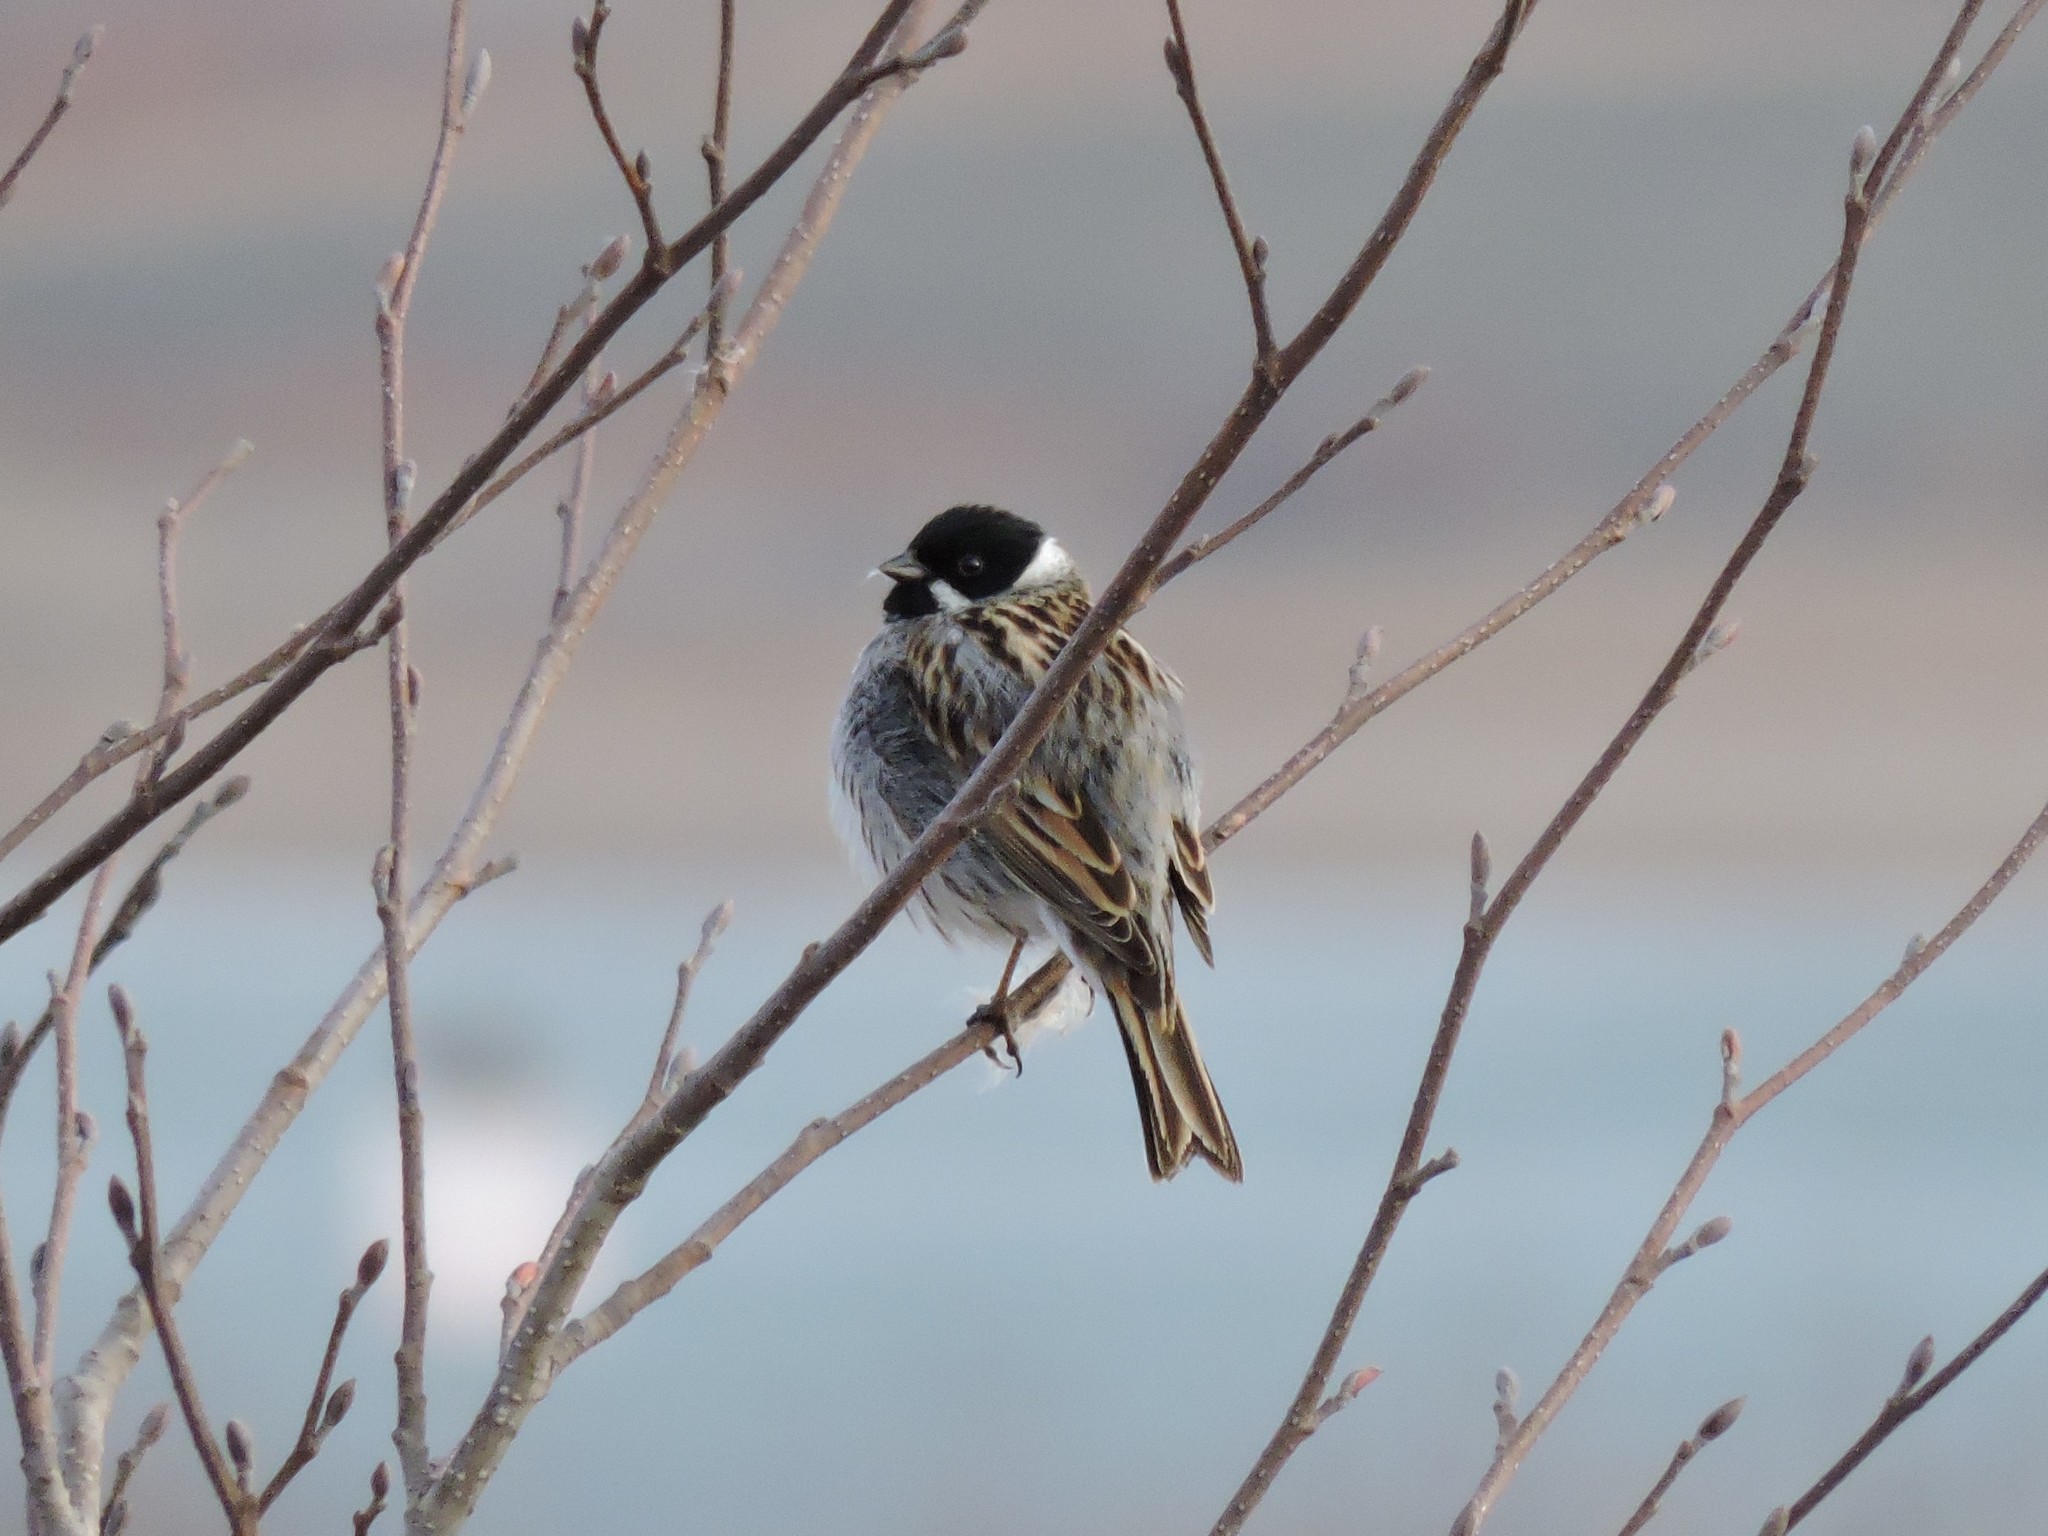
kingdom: Animalia
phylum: Chordata
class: Aves
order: Passeriformes
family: Emberizidae
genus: Emberiza
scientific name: Emberiza schoeniclus
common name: Reed bunting
